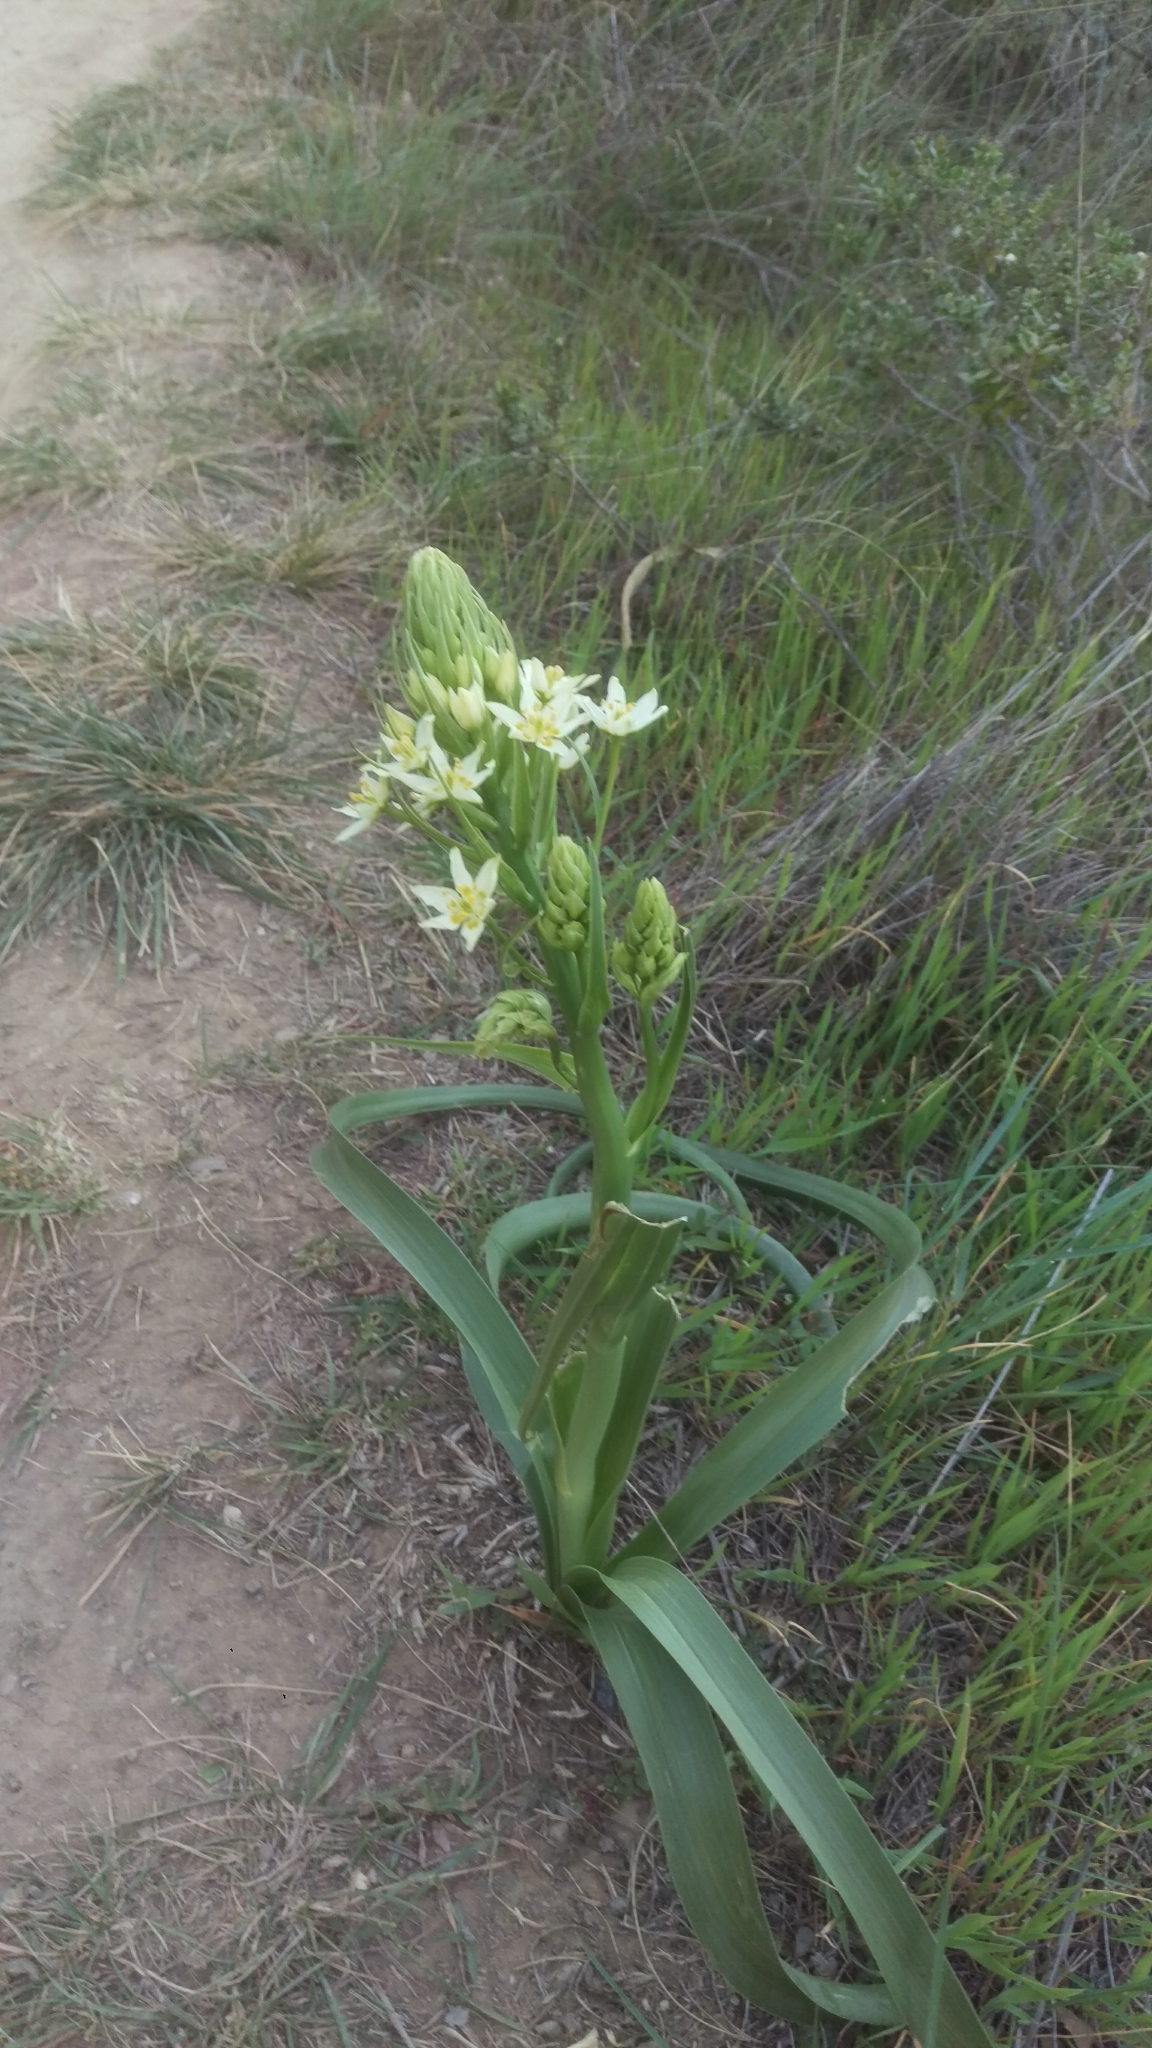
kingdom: Plantae
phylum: Tracheophyta
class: Liliopsida
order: Liliales
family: Melanthiaceae
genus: Toxicoscordion
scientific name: Toxicoscordion fremontii
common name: Fremont's death camas
